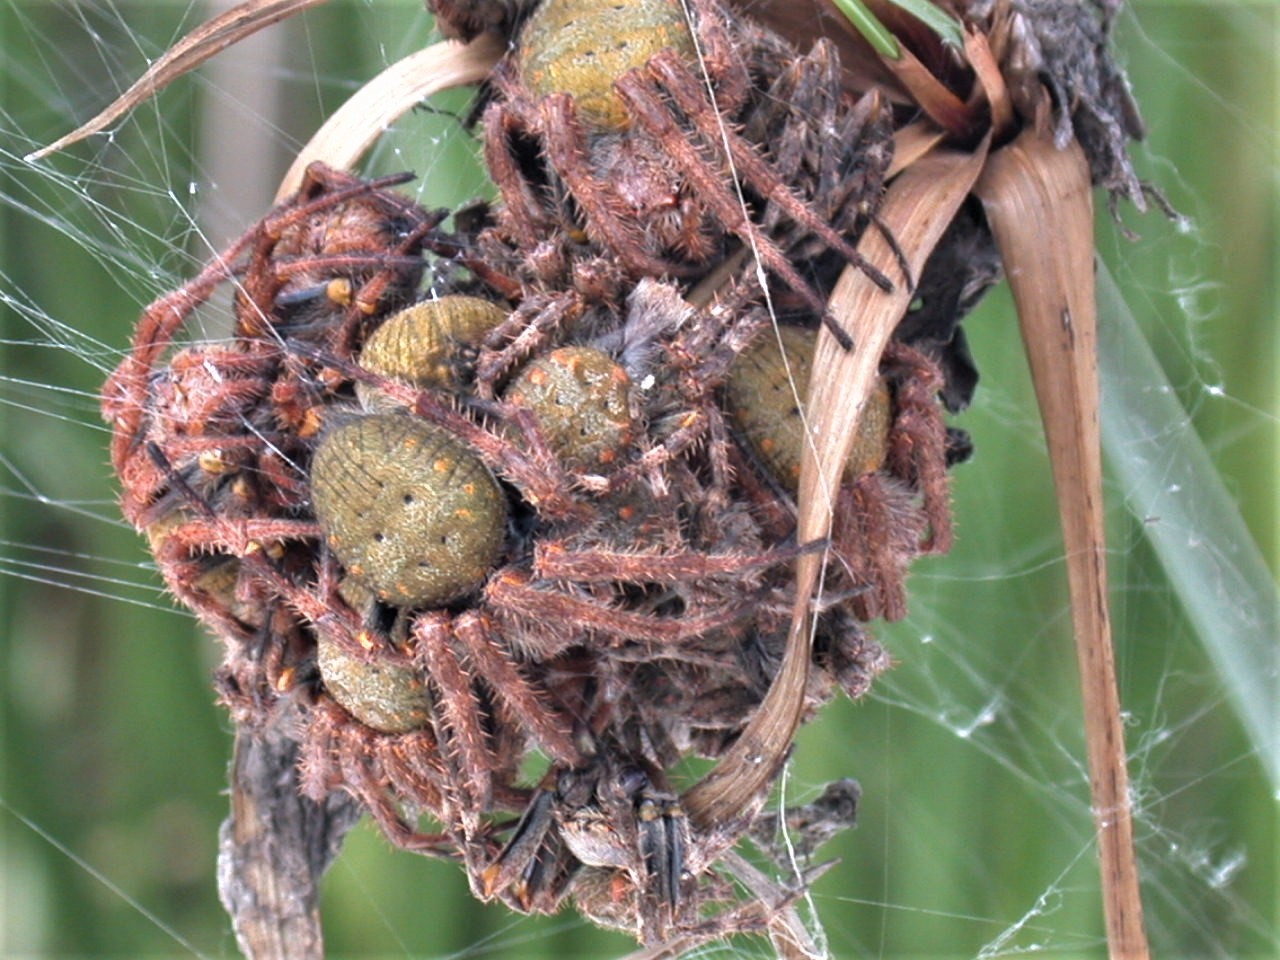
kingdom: Animalia
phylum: Arthropoda
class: Arachnida
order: Araneae
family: Araneidae
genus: Parawixia
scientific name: Parawixia bistriata
